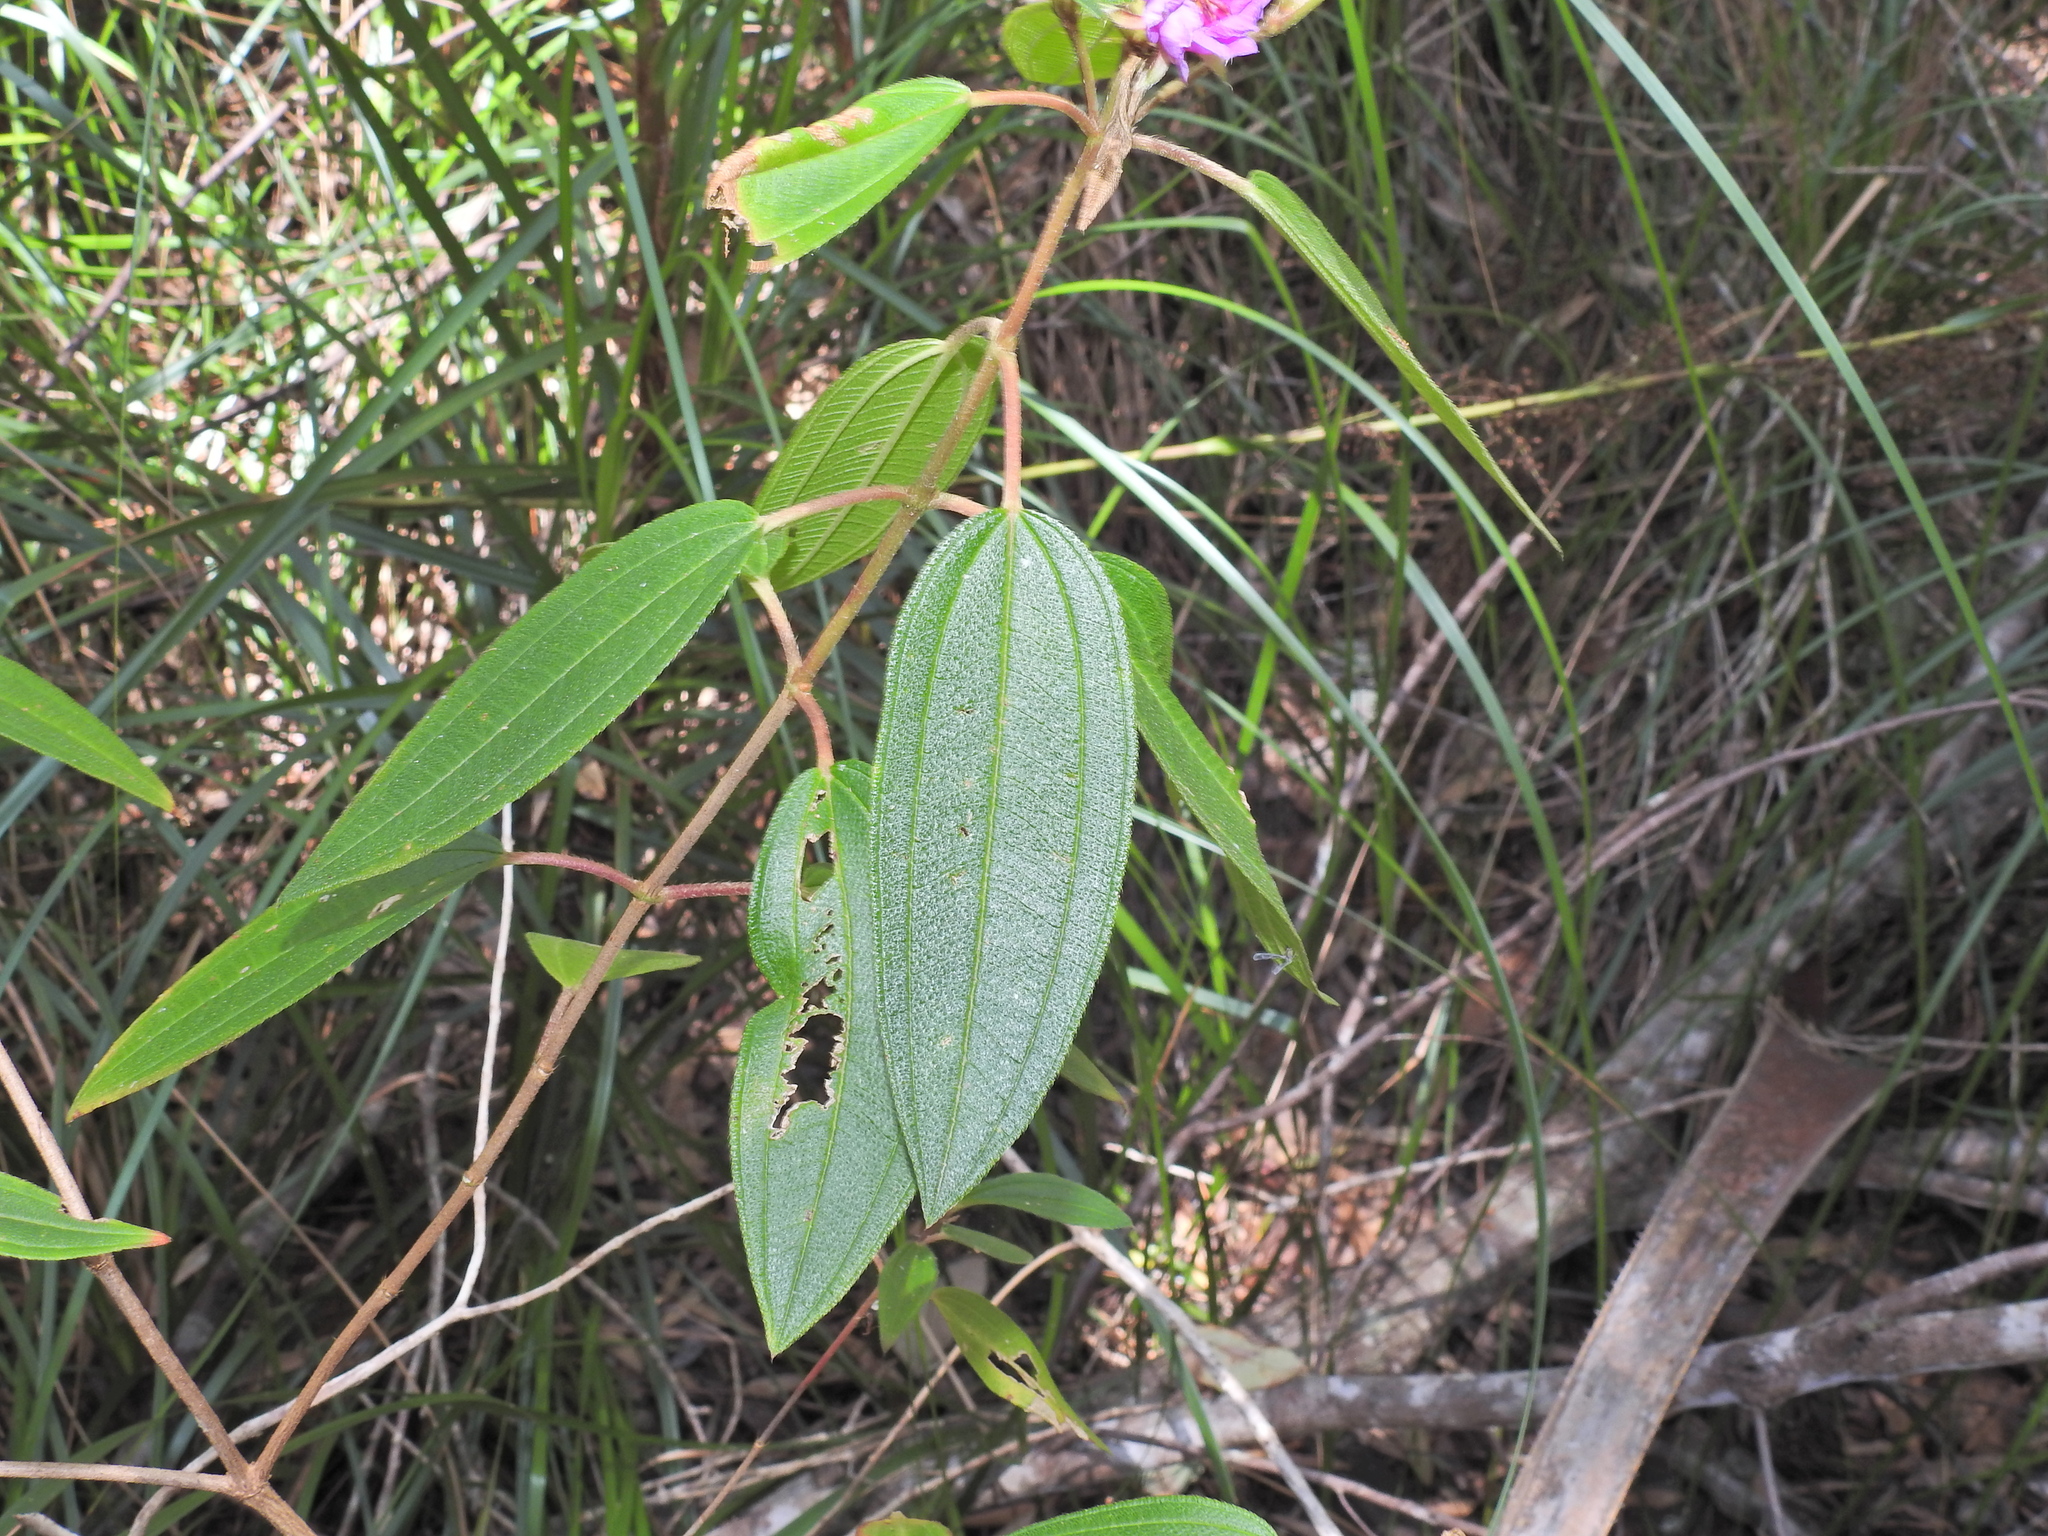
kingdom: Plantae
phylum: Tracheophyta
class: Magnoliopsida
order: Myrtales
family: Melastomataceae
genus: Melastoma
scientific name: Melastoma malabathricum
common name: Indian-rhododendron
